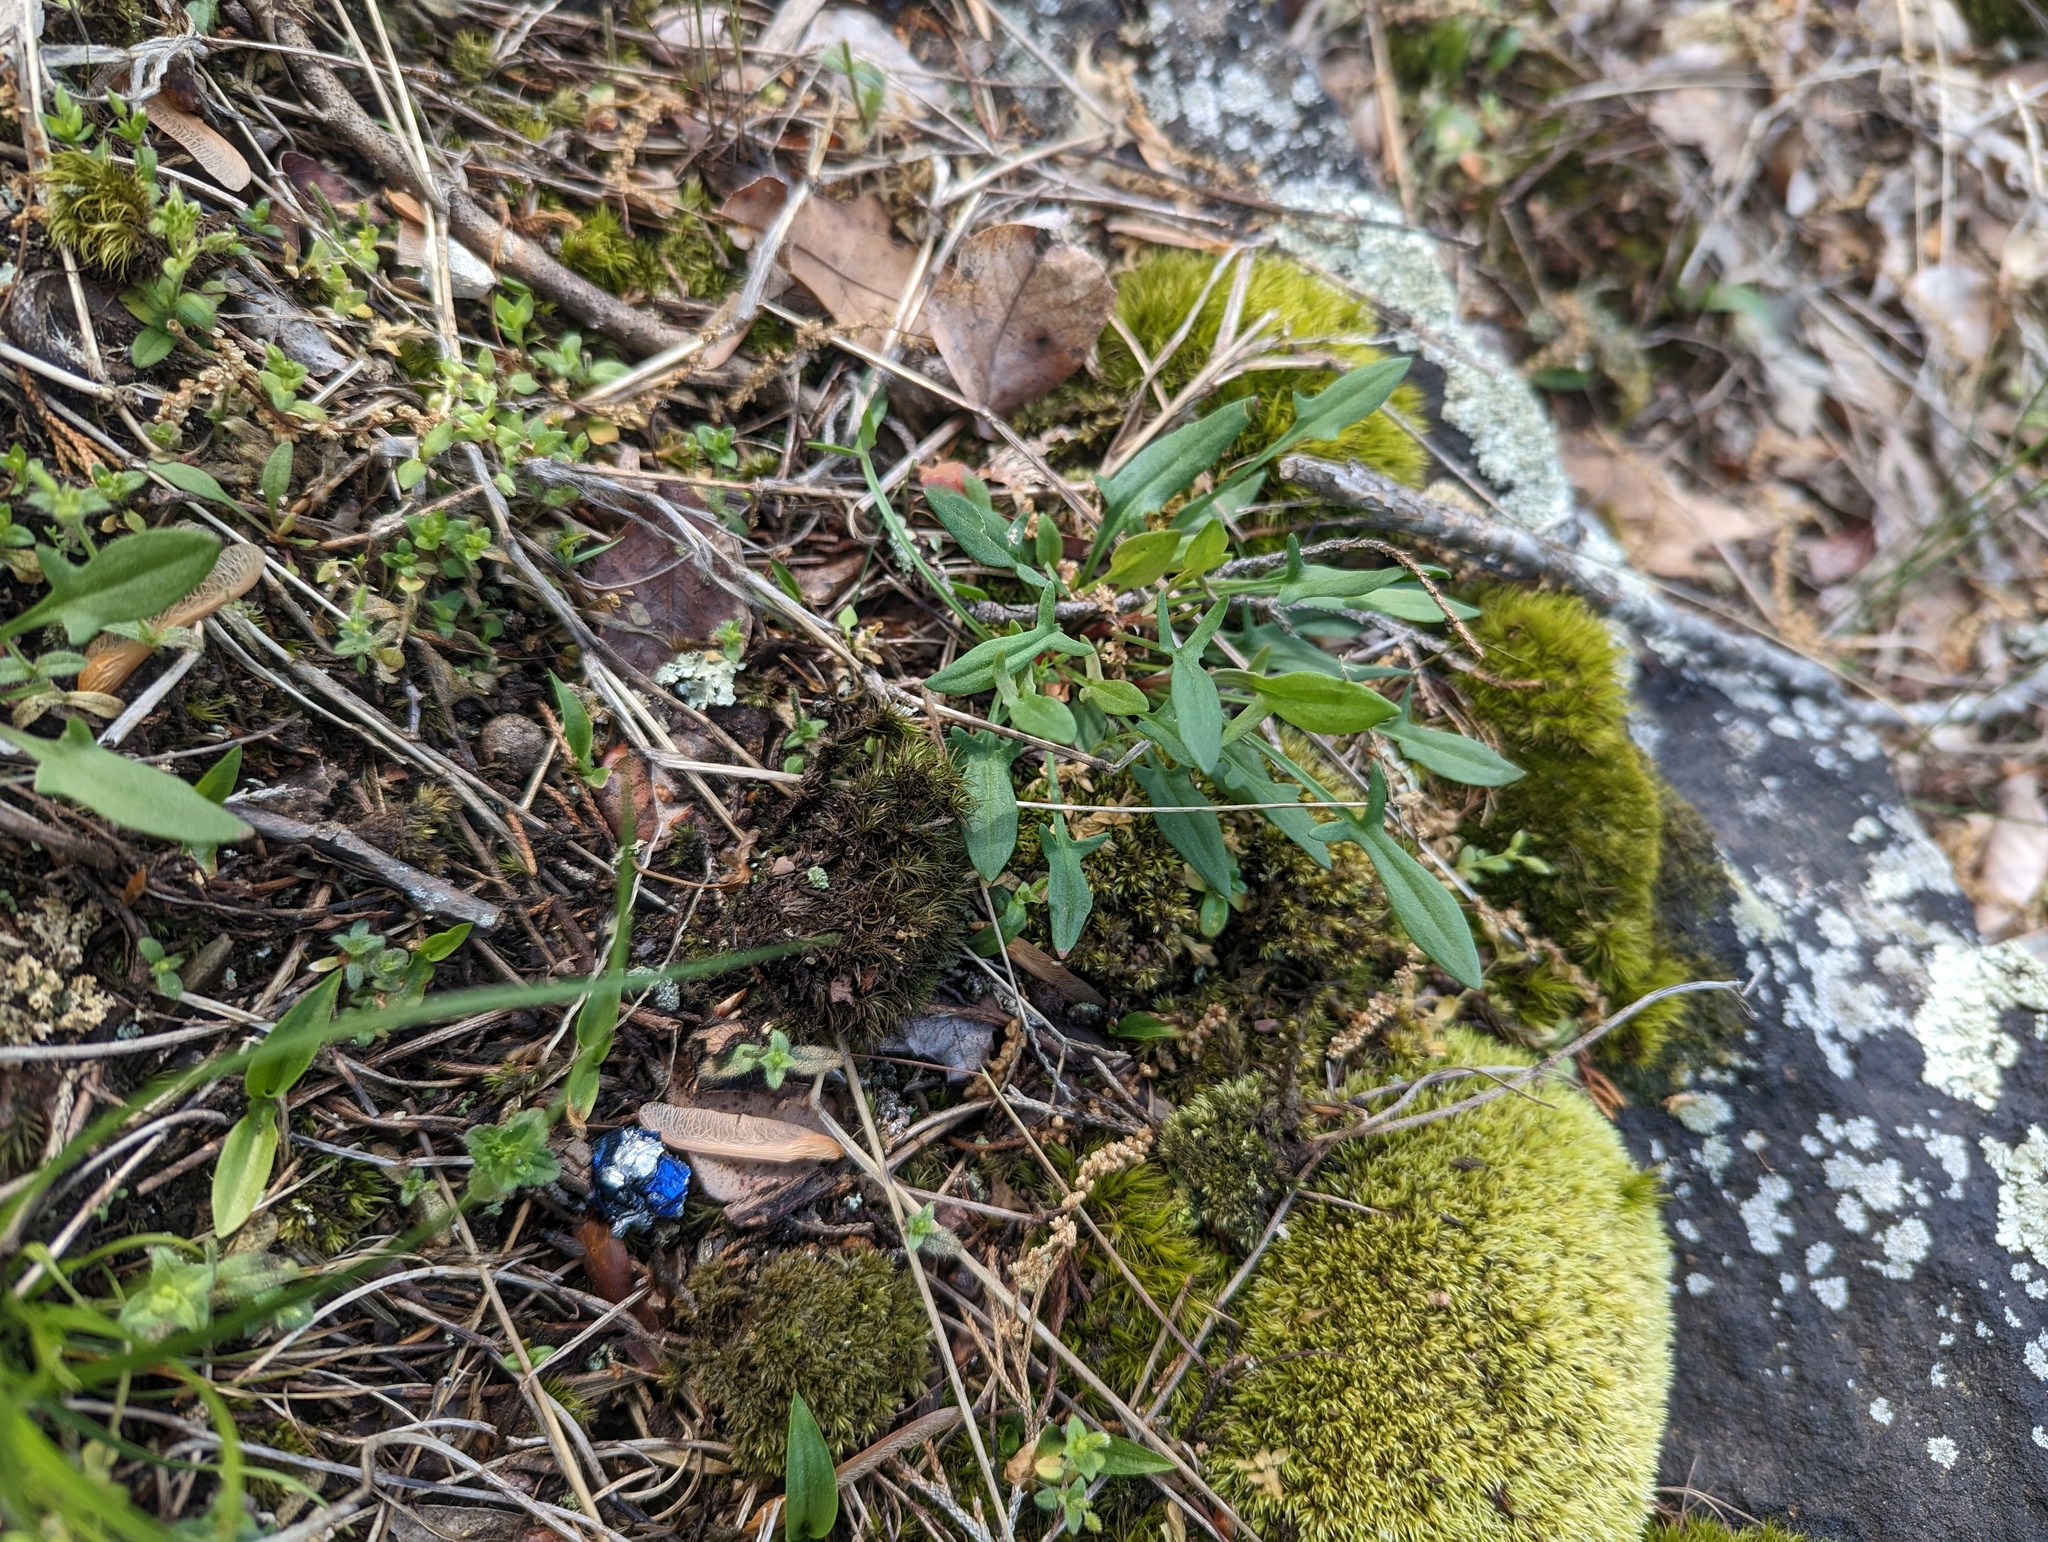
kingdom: Plantae
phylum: Tracheophyta
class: Magnoliopsida
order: Caryophyllales
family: Polygonaceae
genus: Rumex
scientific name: Rumex acetosella
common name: Common sheep sorrel
